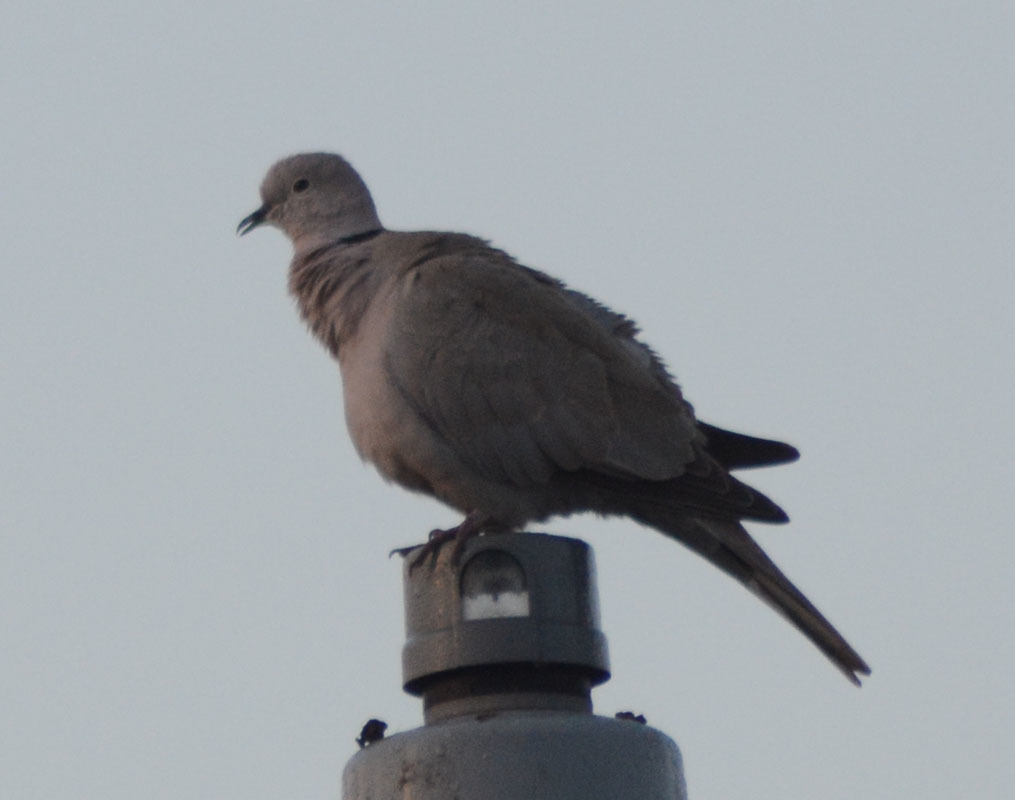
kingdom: Animalia
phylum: Chordata
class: Aves
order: Columbiformes
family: Columbidae
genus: Streptopelia
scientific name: Streptopelia decaocto
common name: Eurasian collared dove
